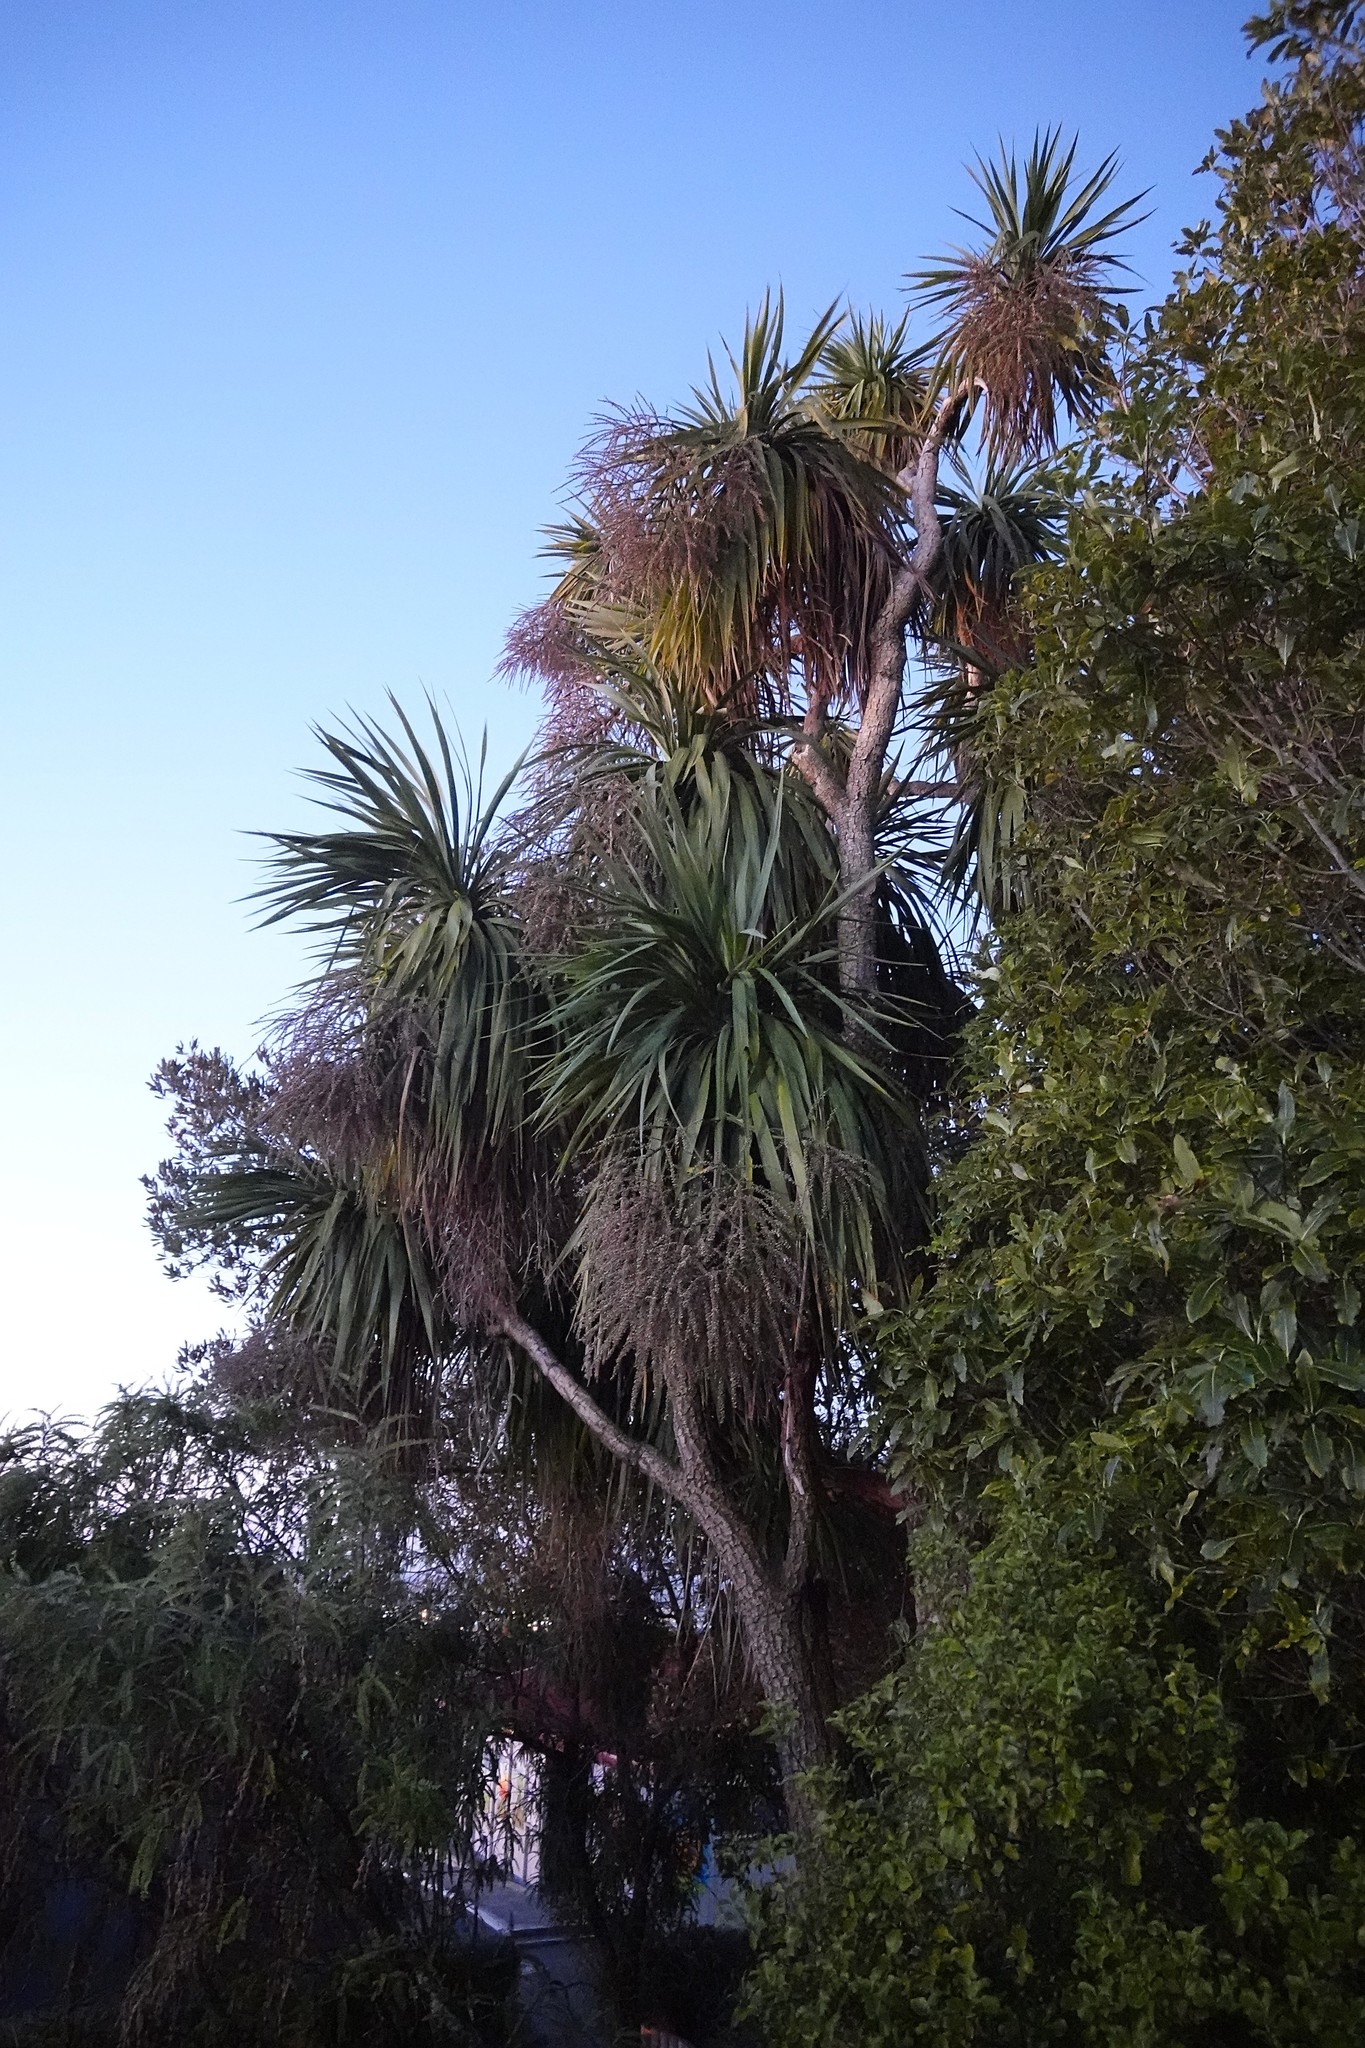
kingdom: Plantae
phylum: Tracheophyta
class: Liliopsida
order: Asparagales
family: Asparagaceae
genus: Cordyline
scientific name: Cordyline australis
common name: Cabbage-palm
